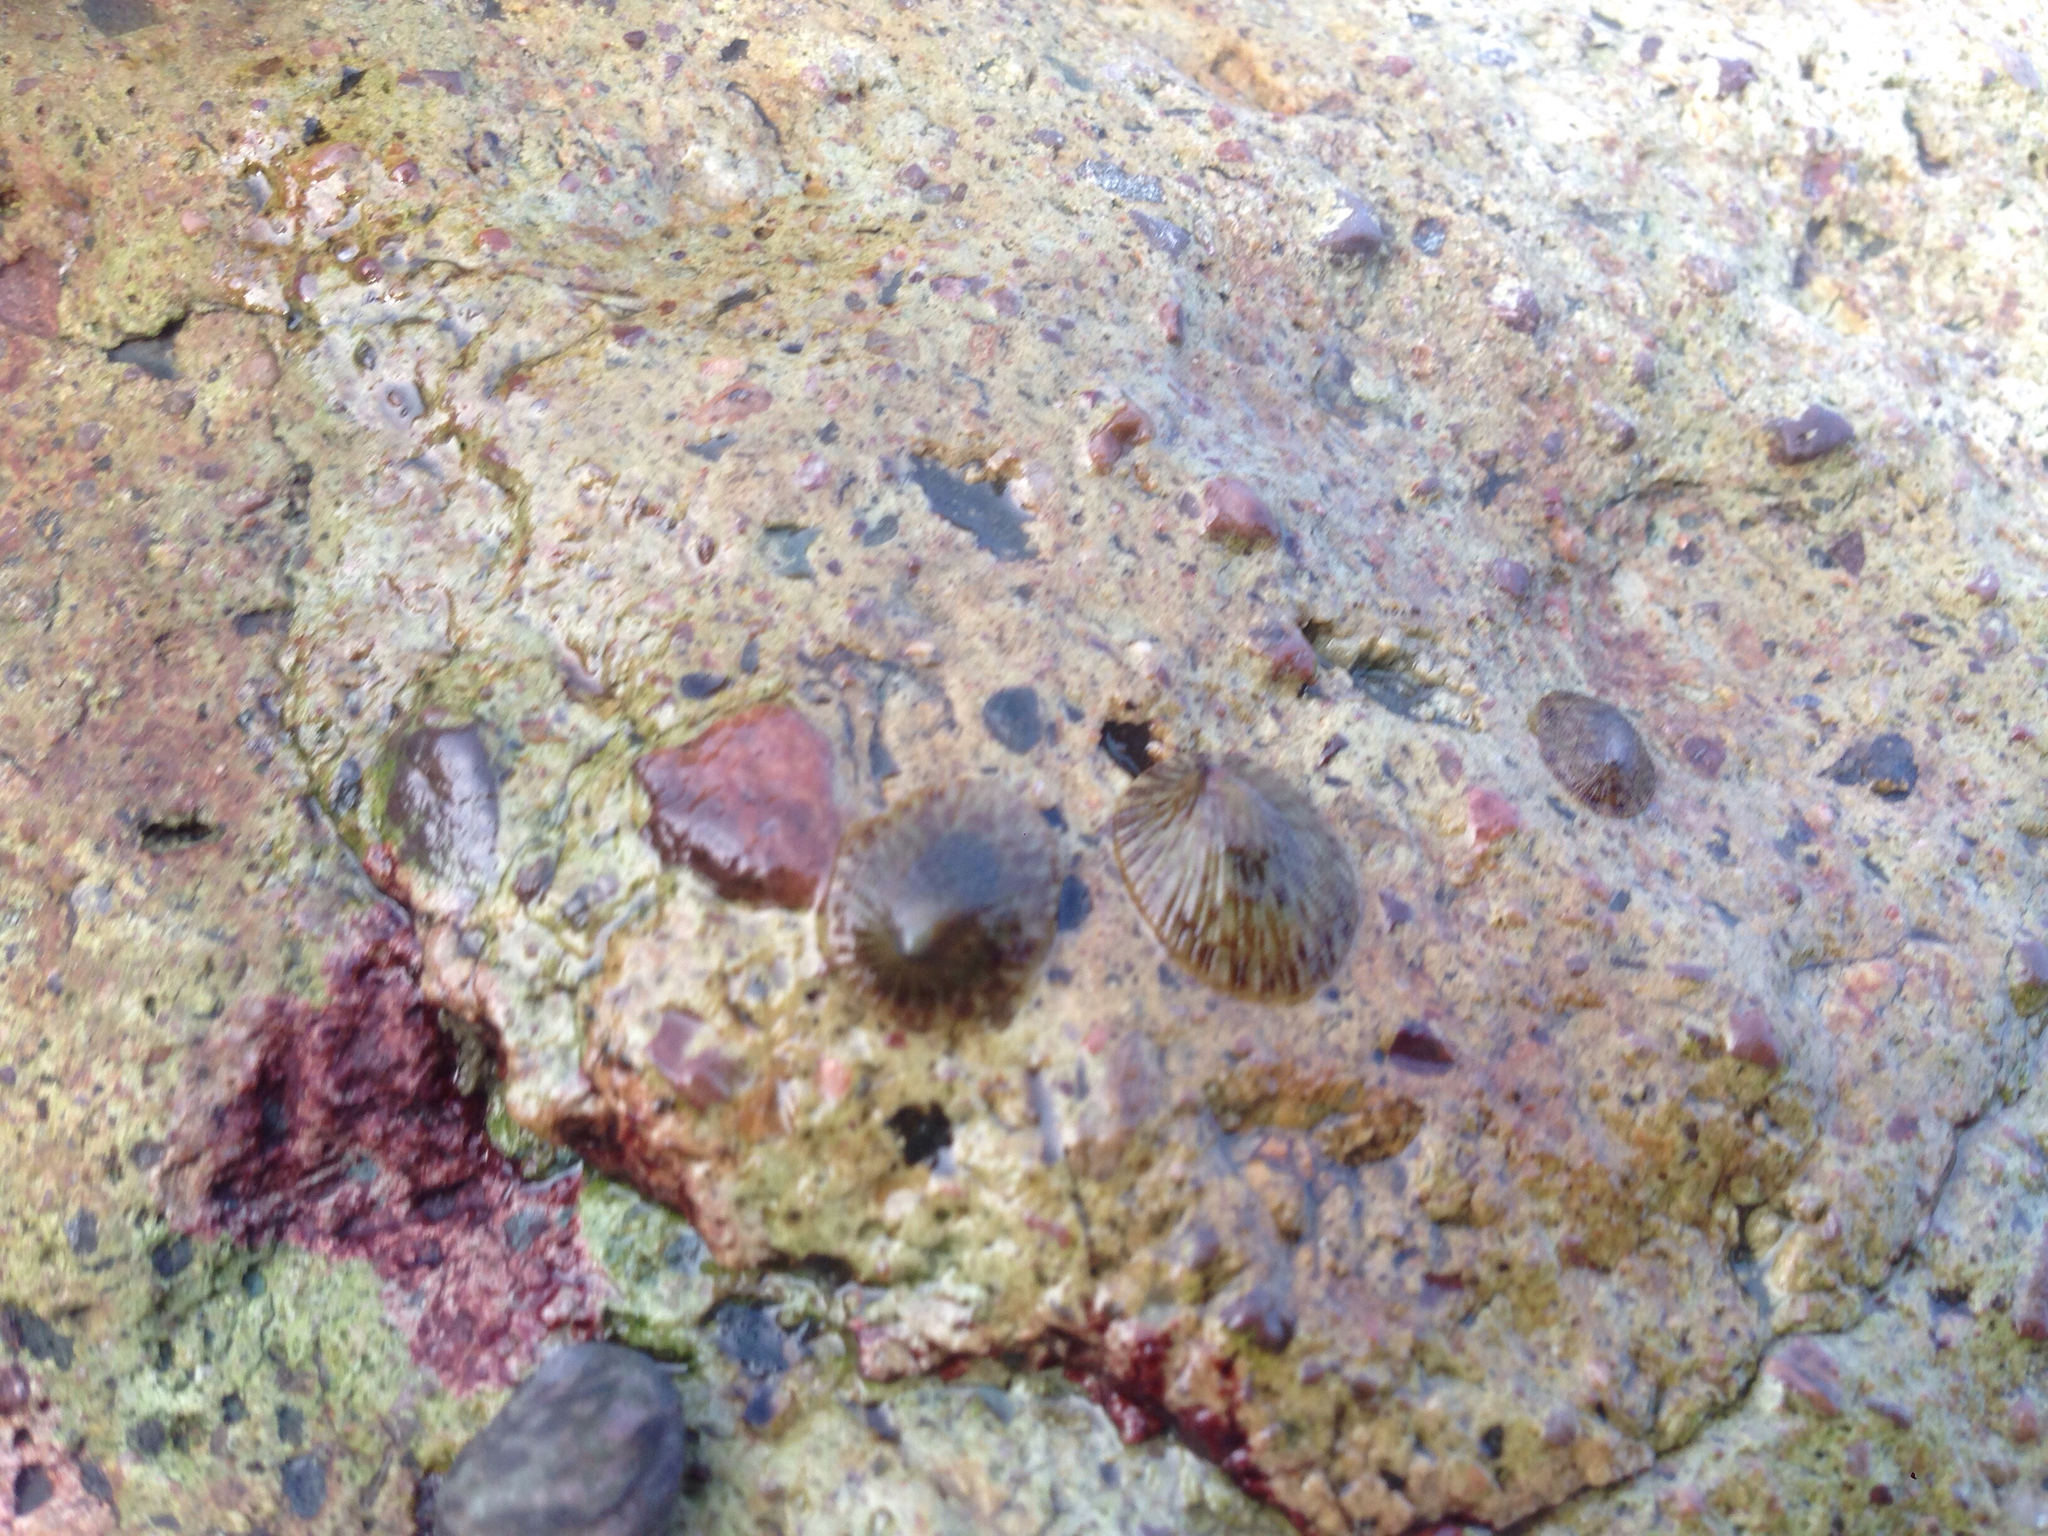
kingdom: Animalia
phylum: Mollusca
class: Gastropoda
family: Lottiidae
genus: Nipponacmea
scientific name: Nipponacmea radula
